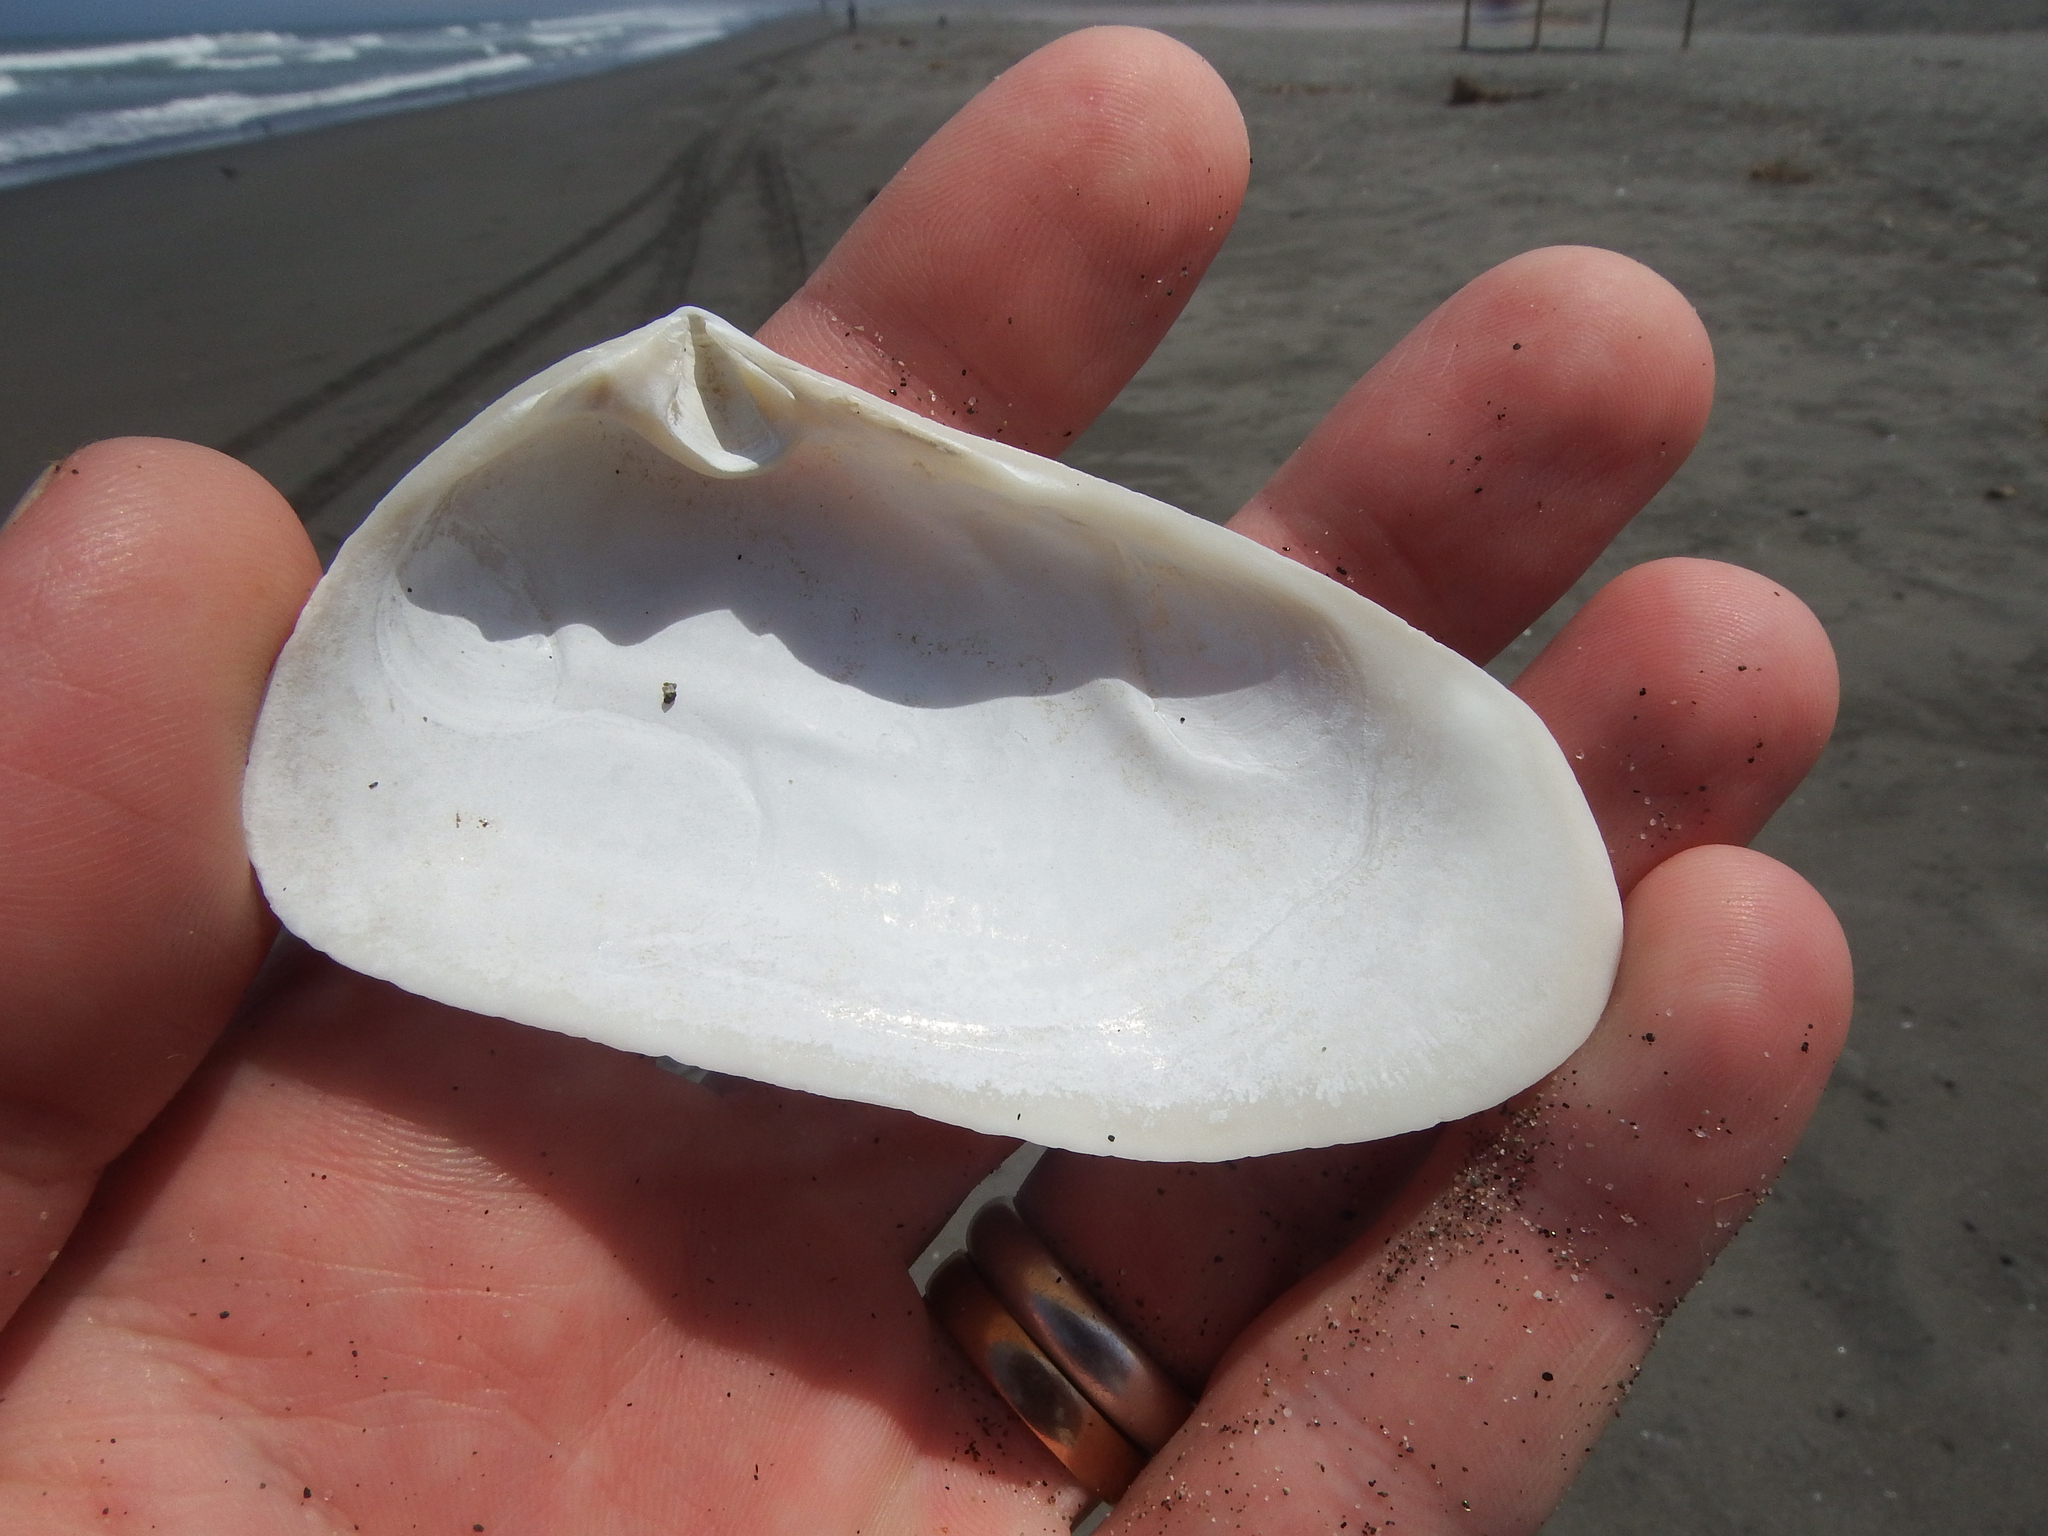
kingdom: Animalia
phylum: Mollusca
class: Bivalvia
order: Venerida
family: Mesodesmatidae
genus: Mesodesma
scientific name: Mesodesma donacium
